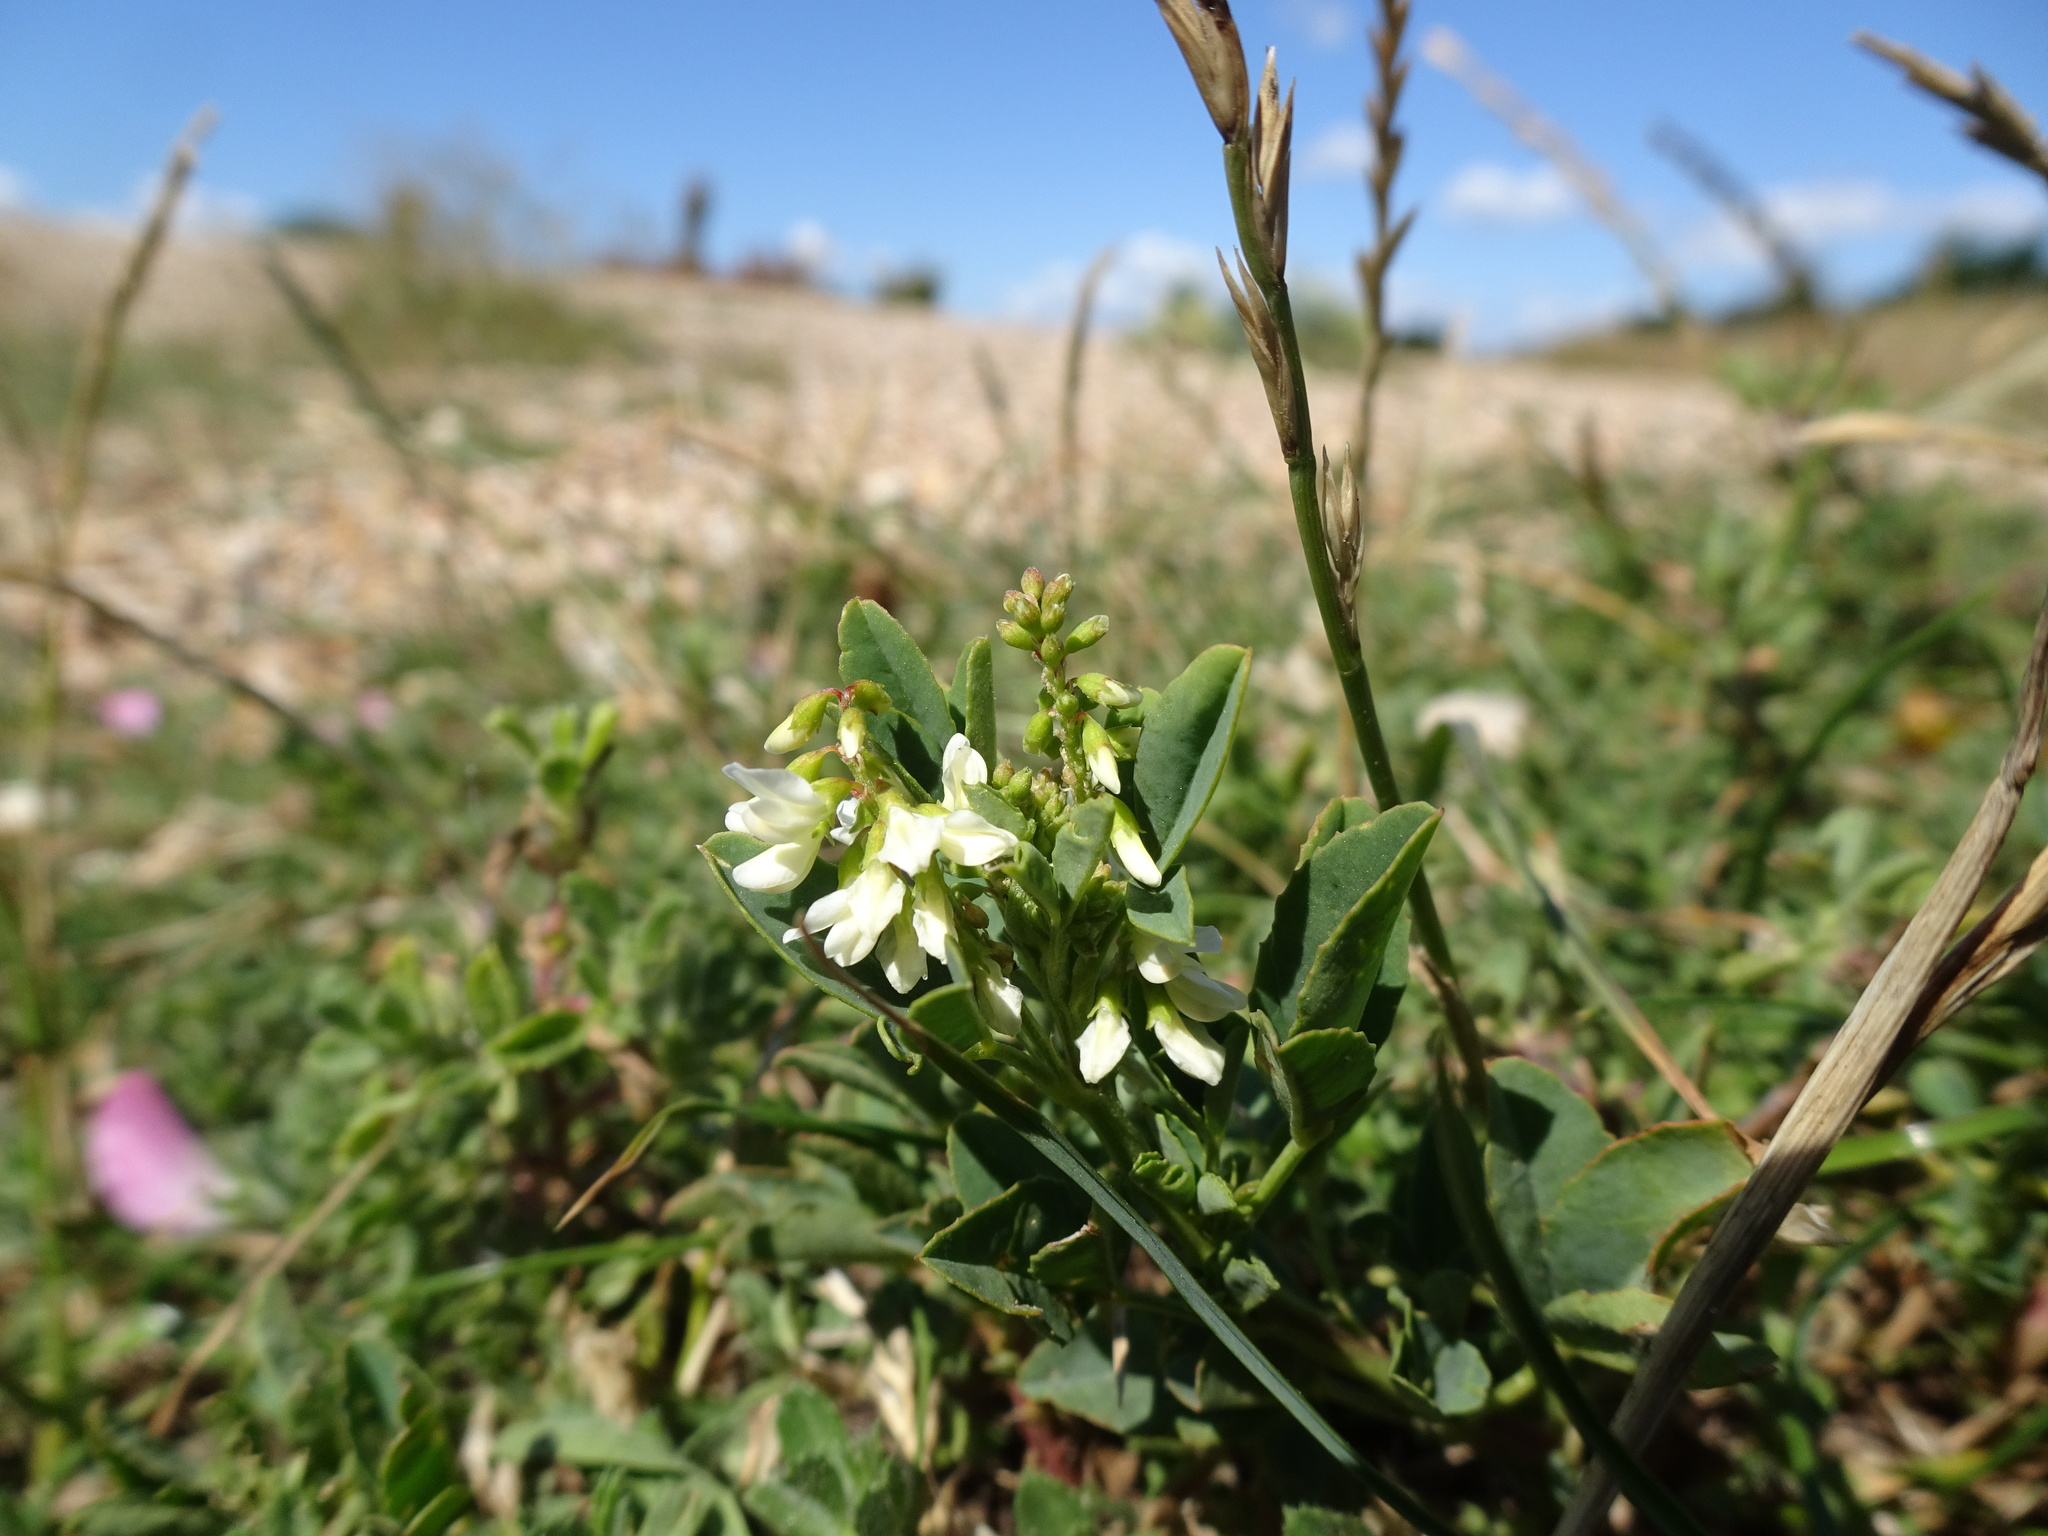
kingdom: Plantae
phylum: Tracheophyta
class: Magnoliopsida
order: Fabales
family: Fabaceae
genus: Melilotus
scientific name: Melilotus albus
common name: White melilot
